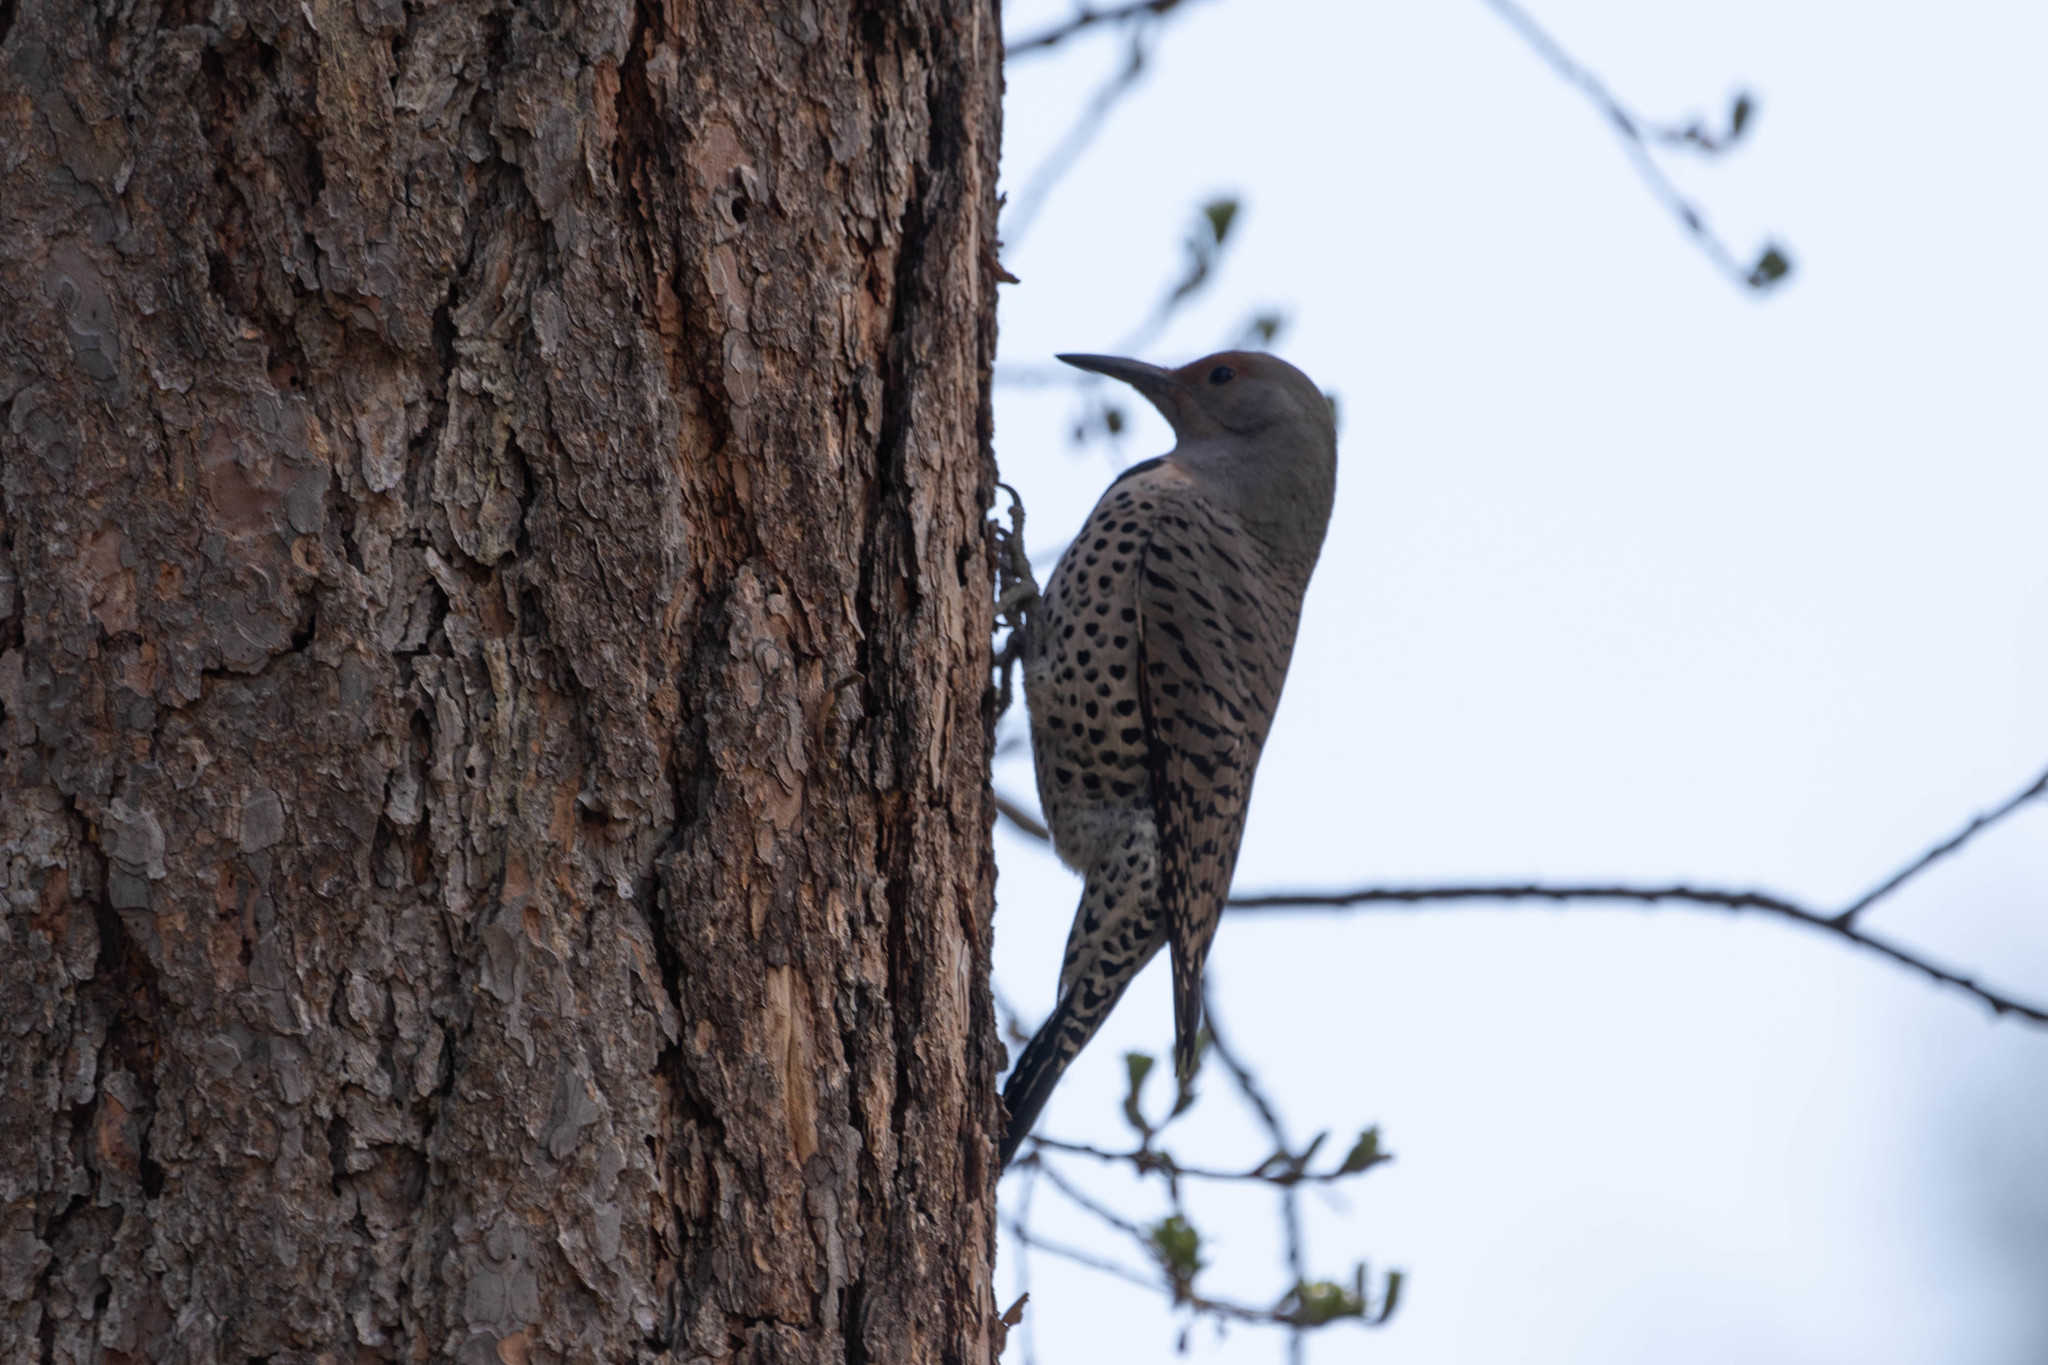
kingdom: Animalia
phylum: Chordata
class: Aves
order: Piciformes
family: Picidae
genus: Colaptes
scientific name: Colaptes auratus
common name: Northern flicker
